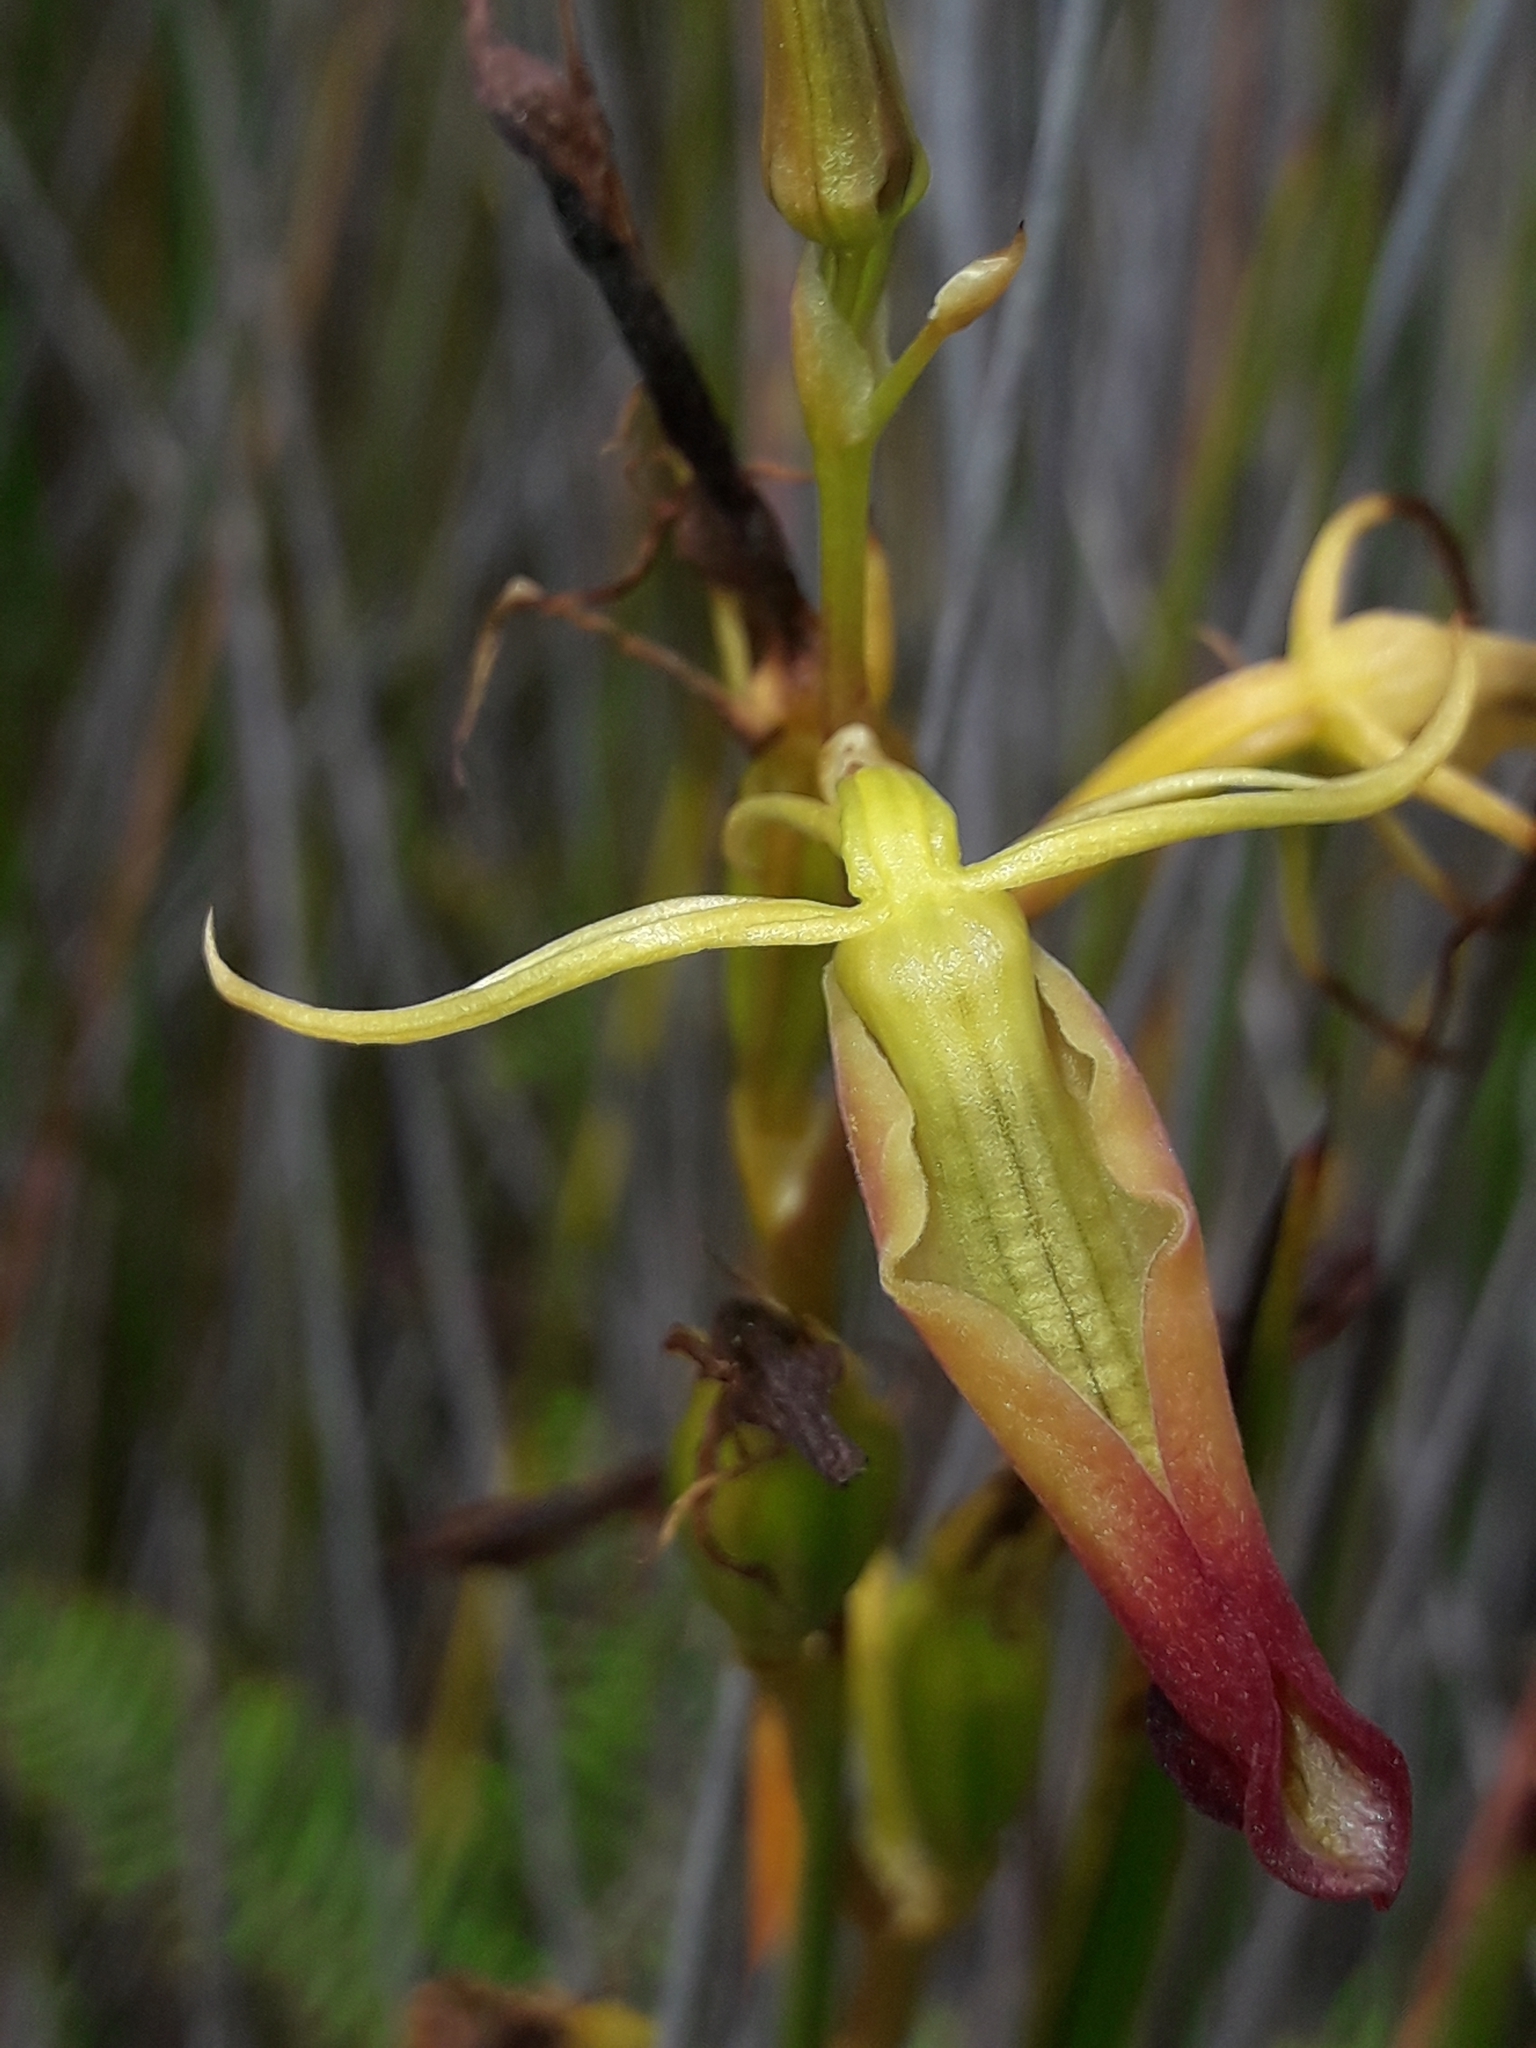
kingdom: Plantae
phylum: Tracheophyta
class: Liliopsida
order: Asparagales
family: Orchidaceae
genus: Cryptostylis
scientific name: Cryptostylis subulata
